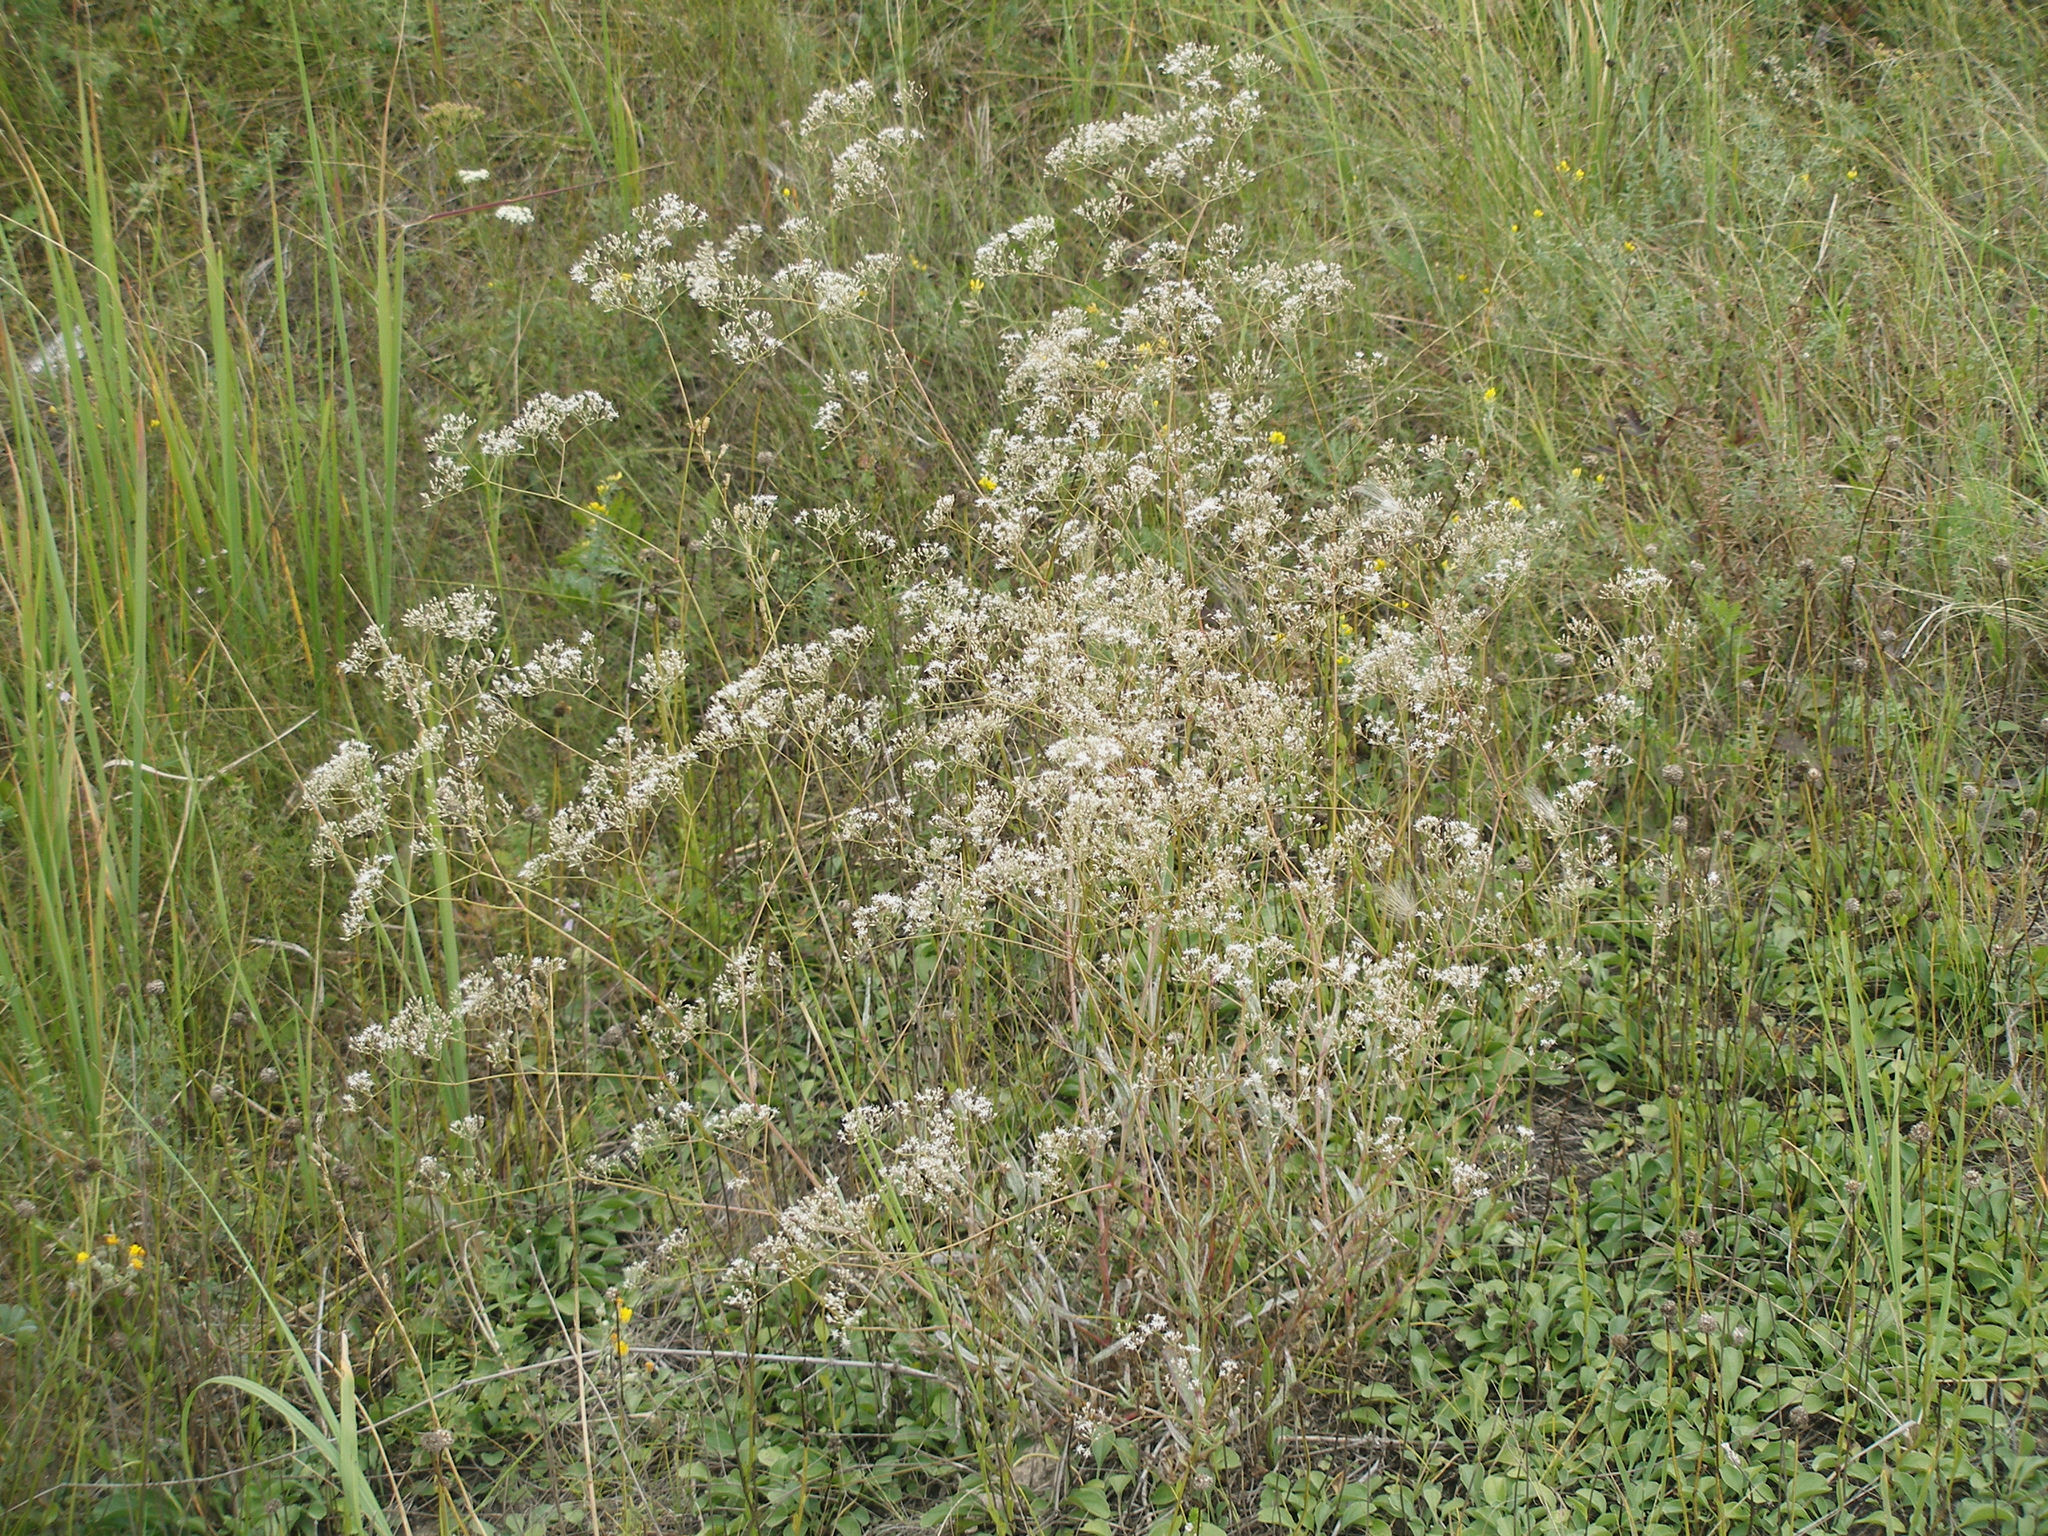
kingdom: Plantae
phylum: Tracheophyta
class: Magnoliopsida
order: Caryophyllales
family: Caryophyllaceae
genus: Gypsophila
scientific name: Gypsophila altissima
